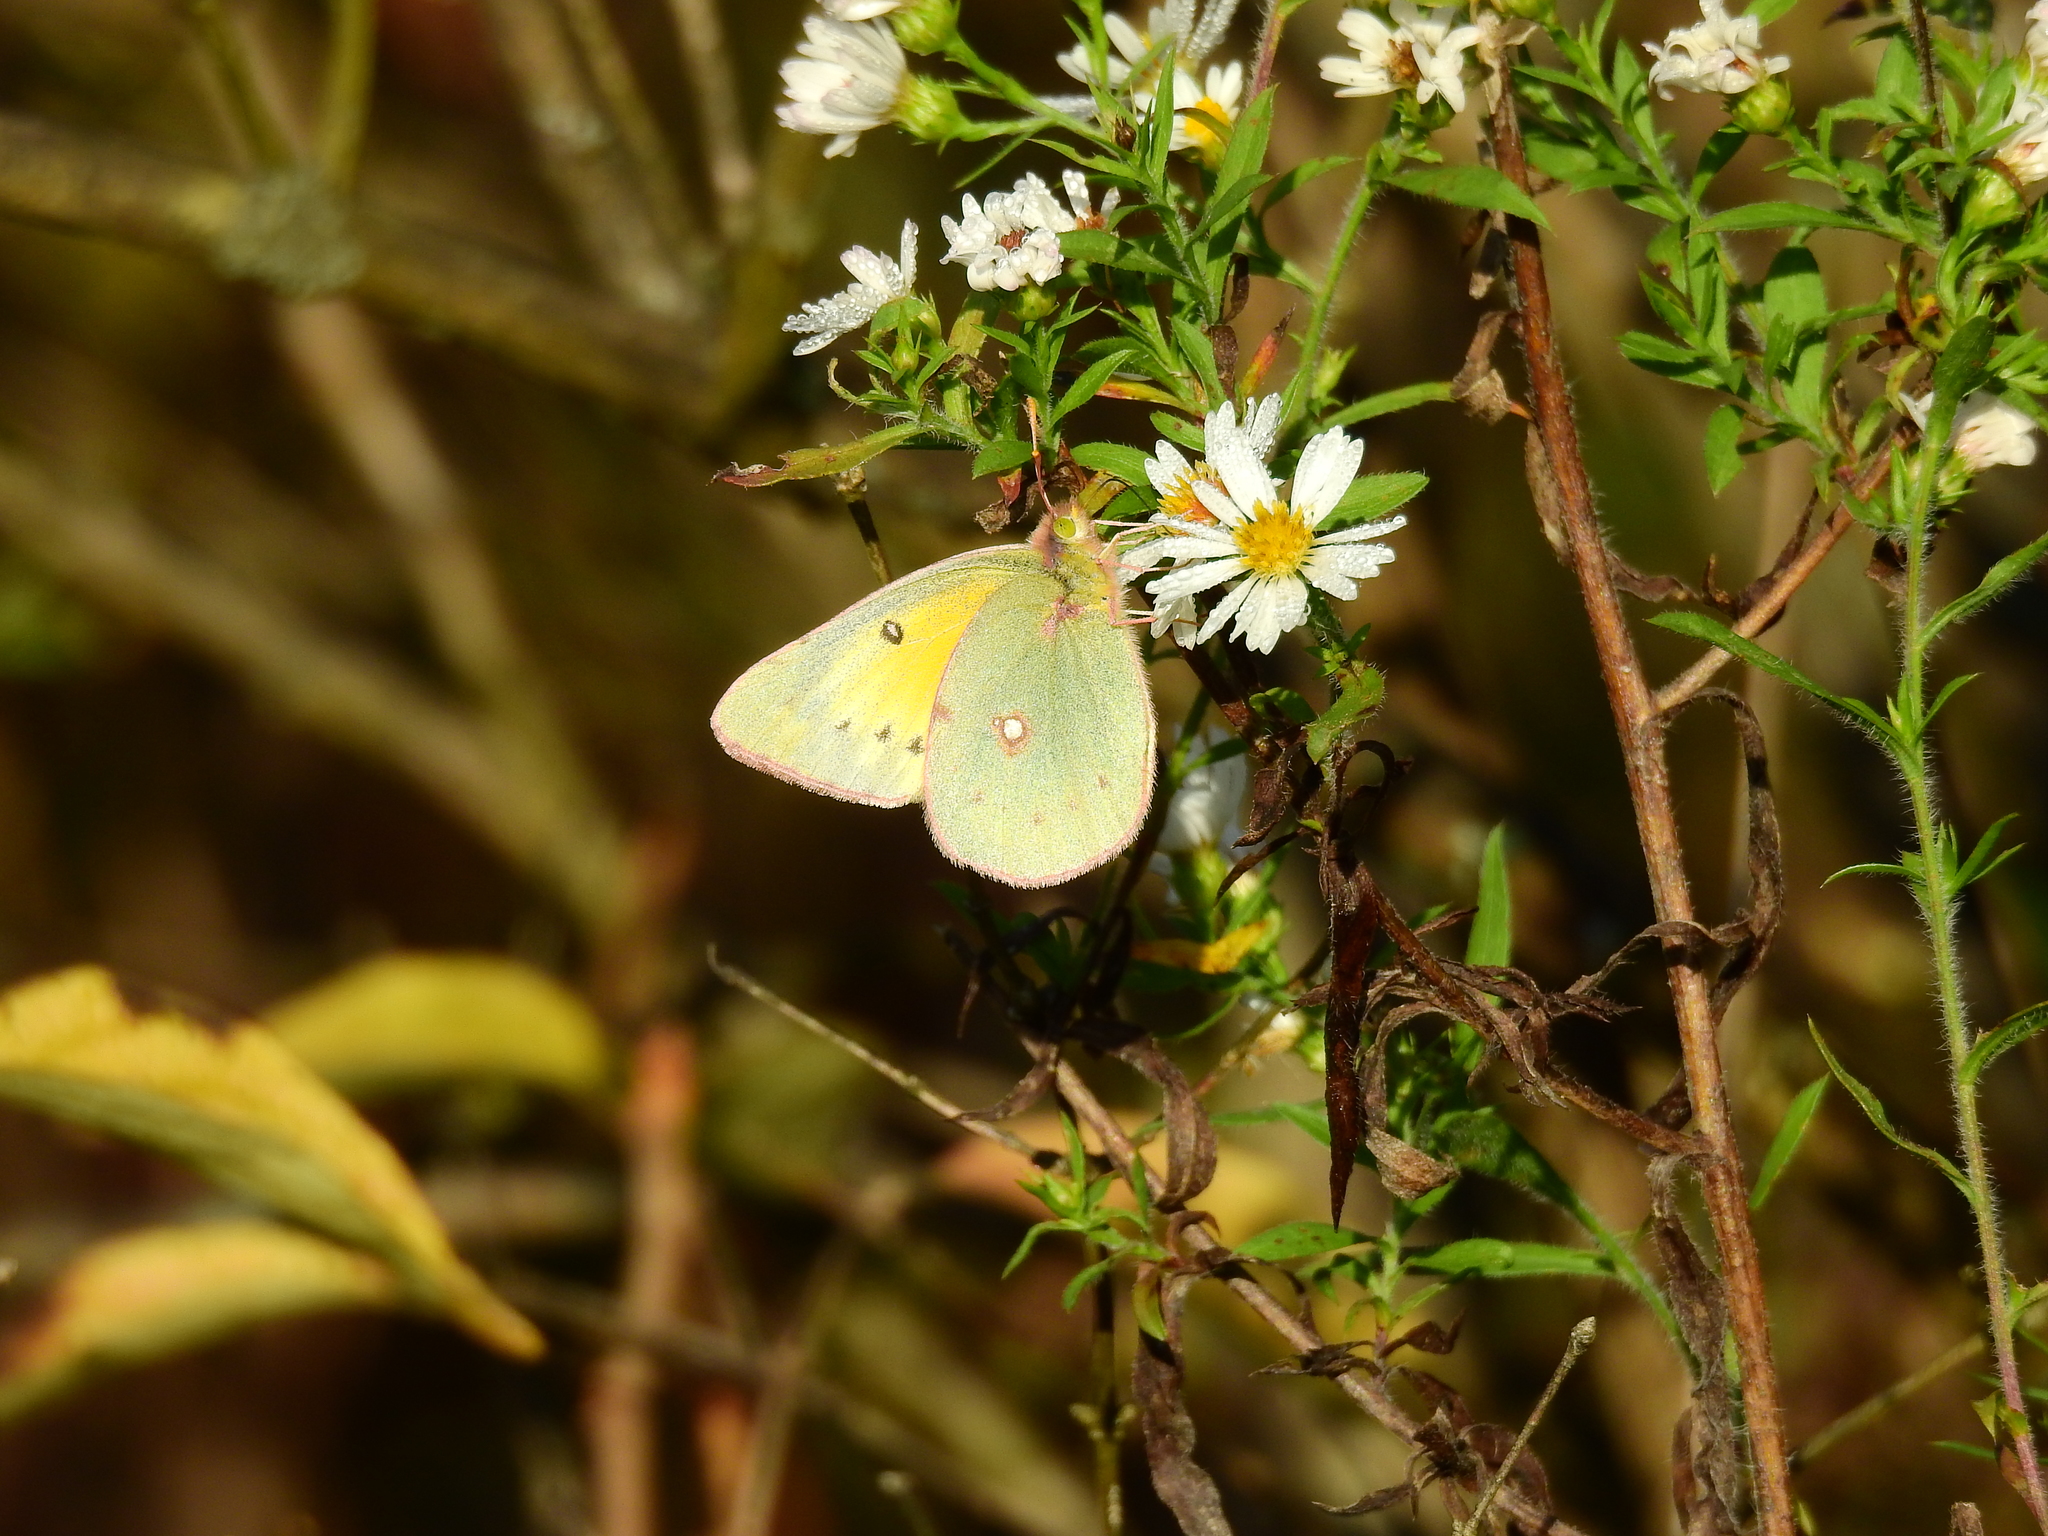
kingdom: Animalia
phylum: Arthropoda
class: Insecta
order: Lepidoptera
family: Pieridae
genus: Colias
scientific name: Colias eurytheme
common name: Alfalfa butterfly
